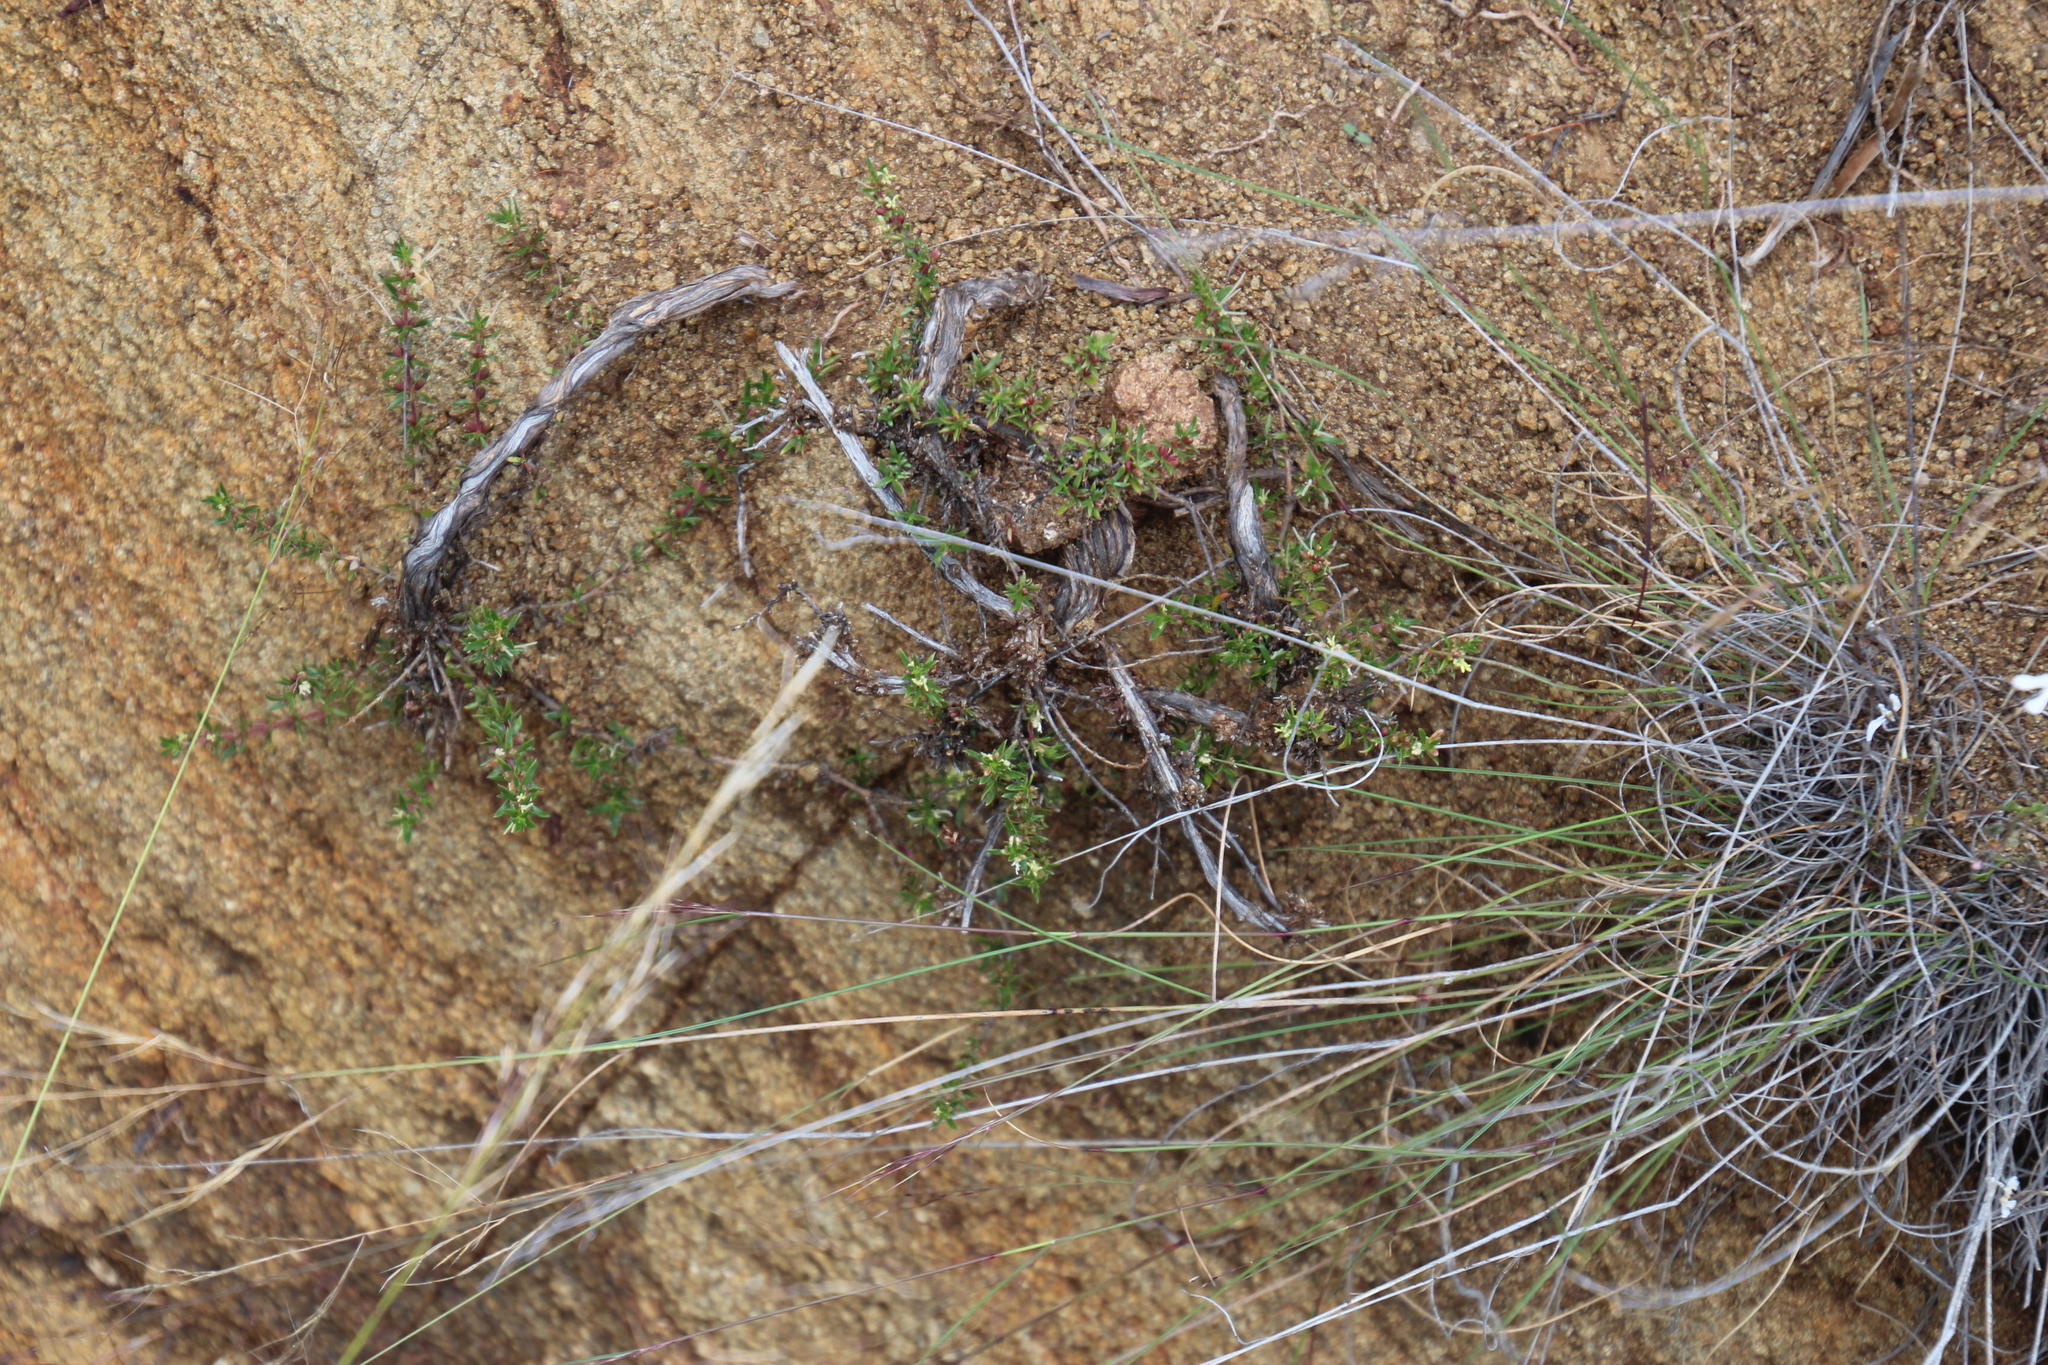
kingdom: Plantae
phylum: Tracheophyta
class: Magnoliopsida
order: Gentianales
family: Rubiaceae
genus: Nenax
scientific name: Nenax microphylla
